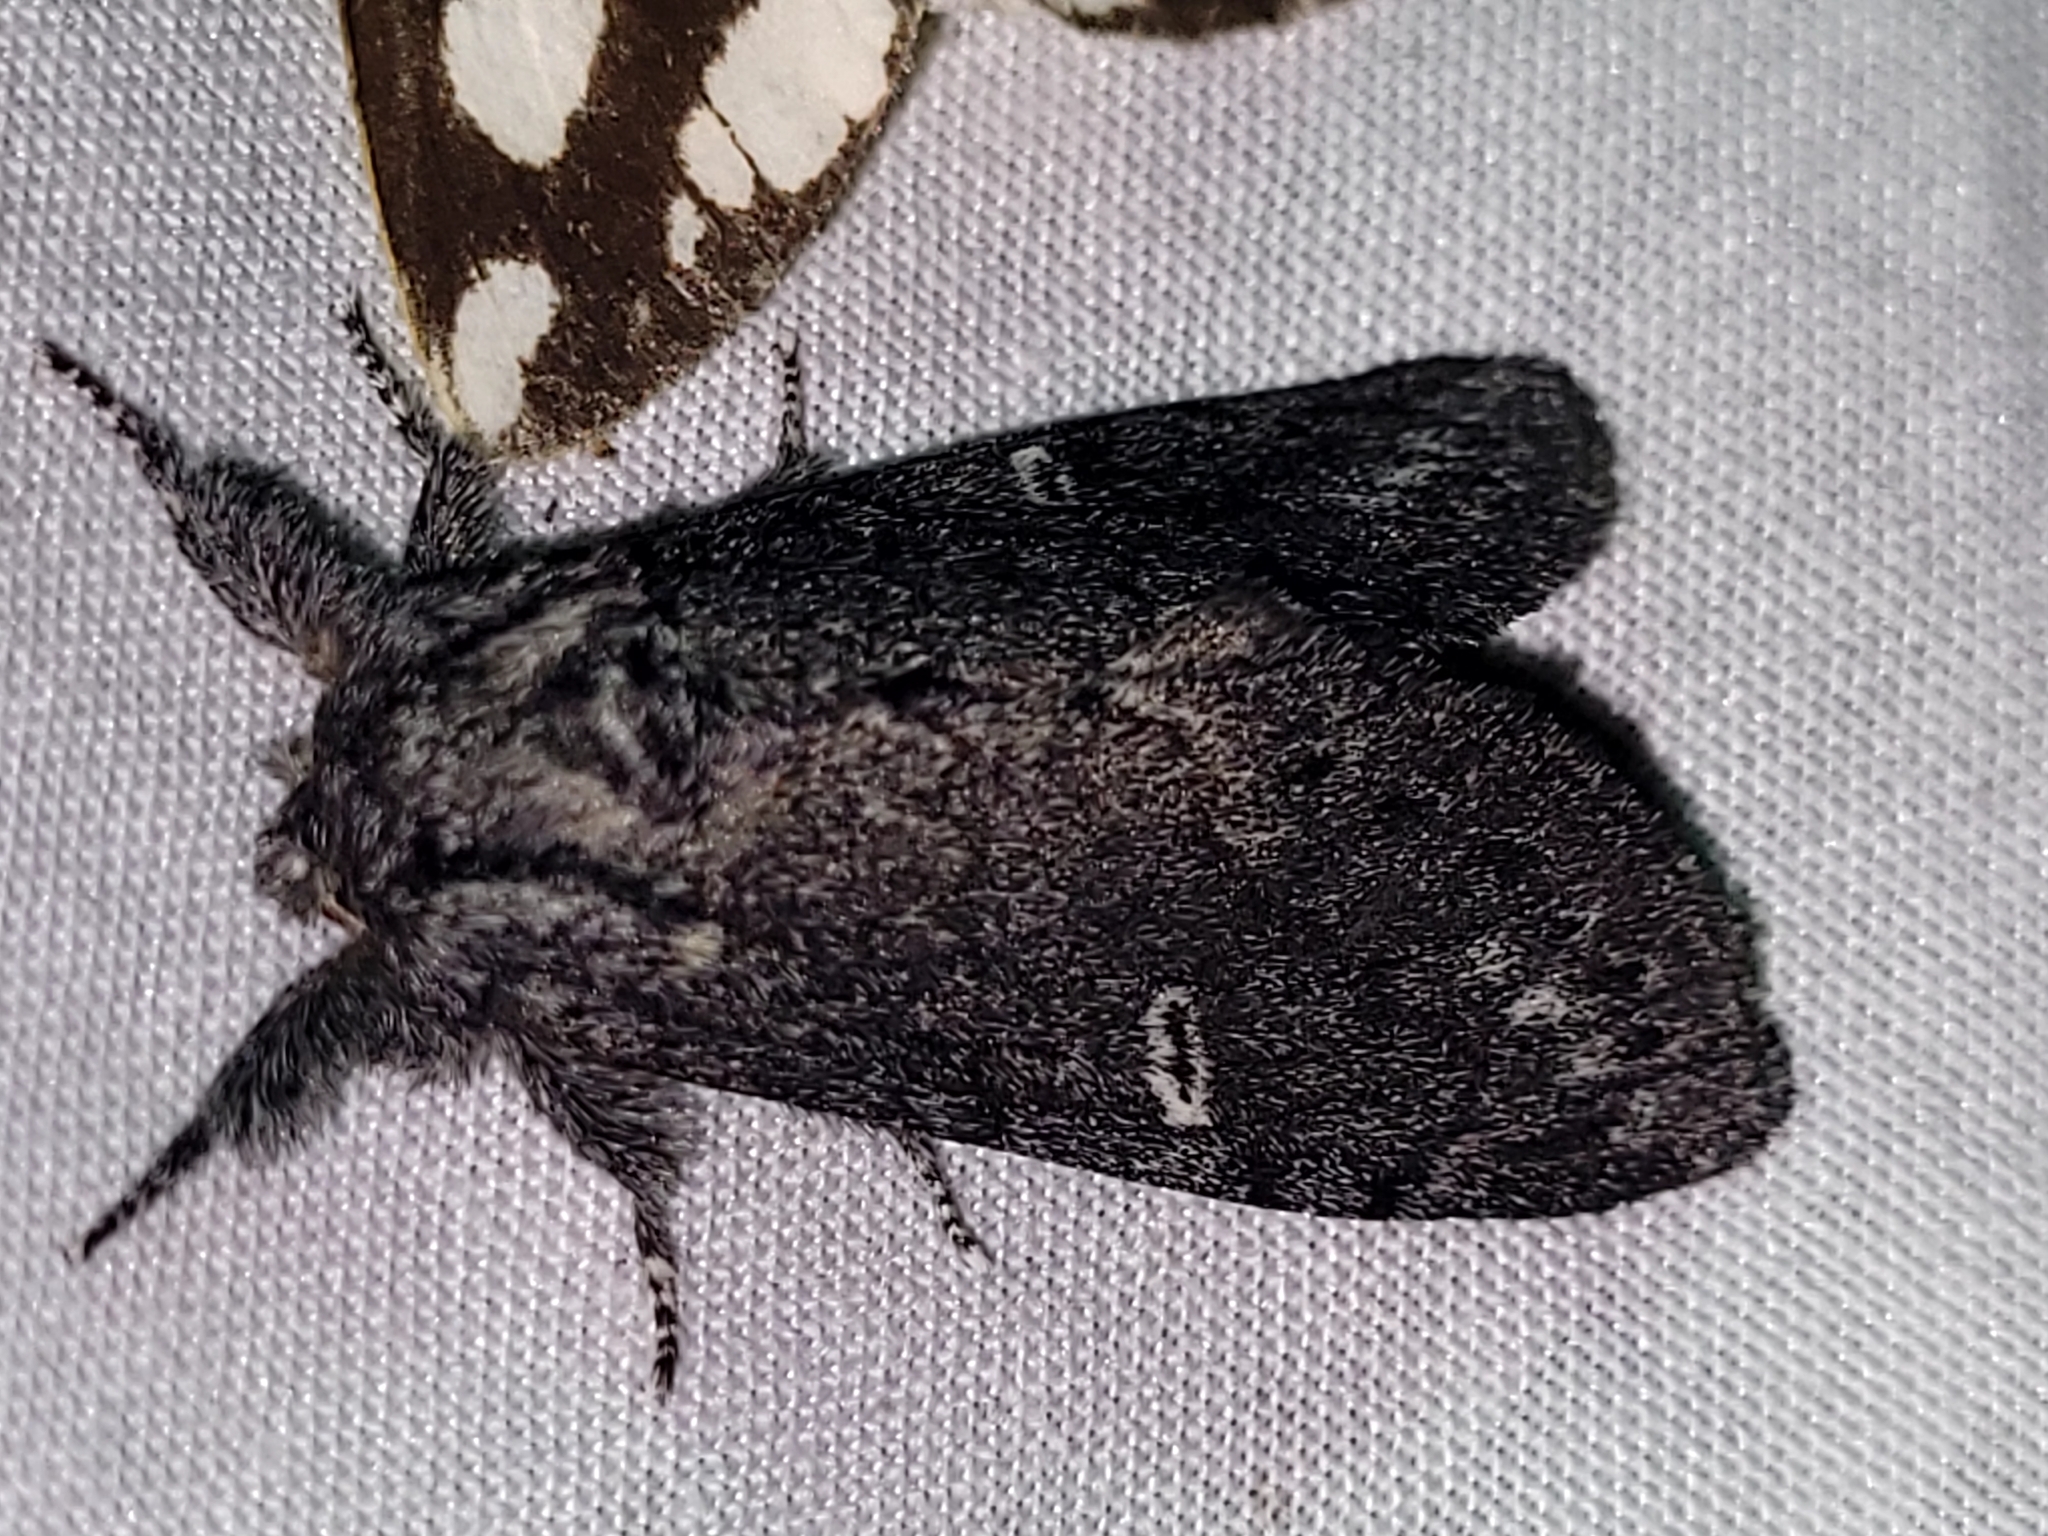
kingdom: Animalia
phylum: Arthropoda
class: Insecta
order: Lepidoptera
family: Notodontidae
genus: Notodonta
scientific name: Notodonta torva
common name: Large dark prominent
